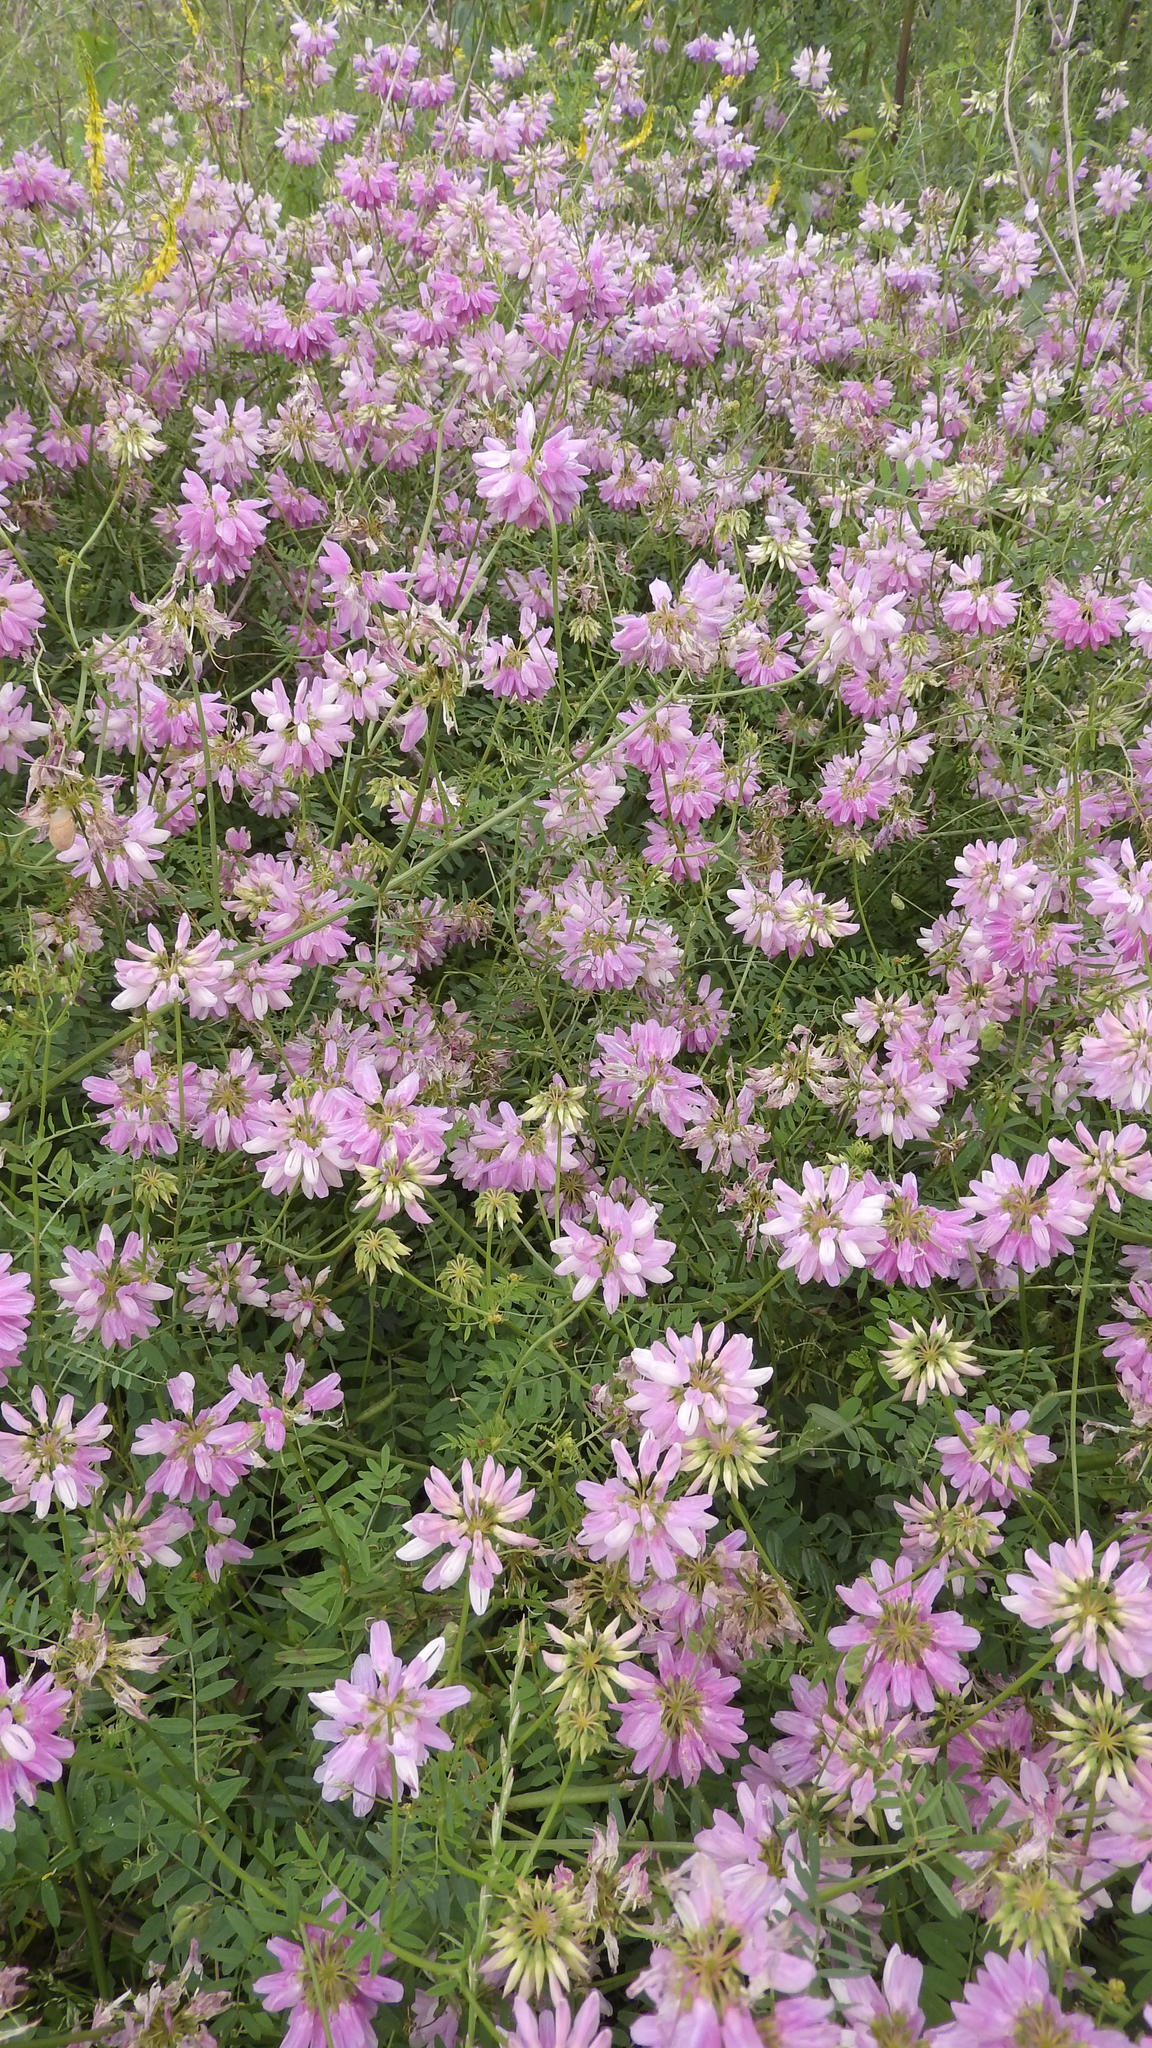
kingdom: Plantae
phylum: Tracheophyta
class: Magnoliopsida
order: Fabales
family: Fabaceae
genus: Coronilla
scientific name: Coronilla varia
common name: Crownvetch
